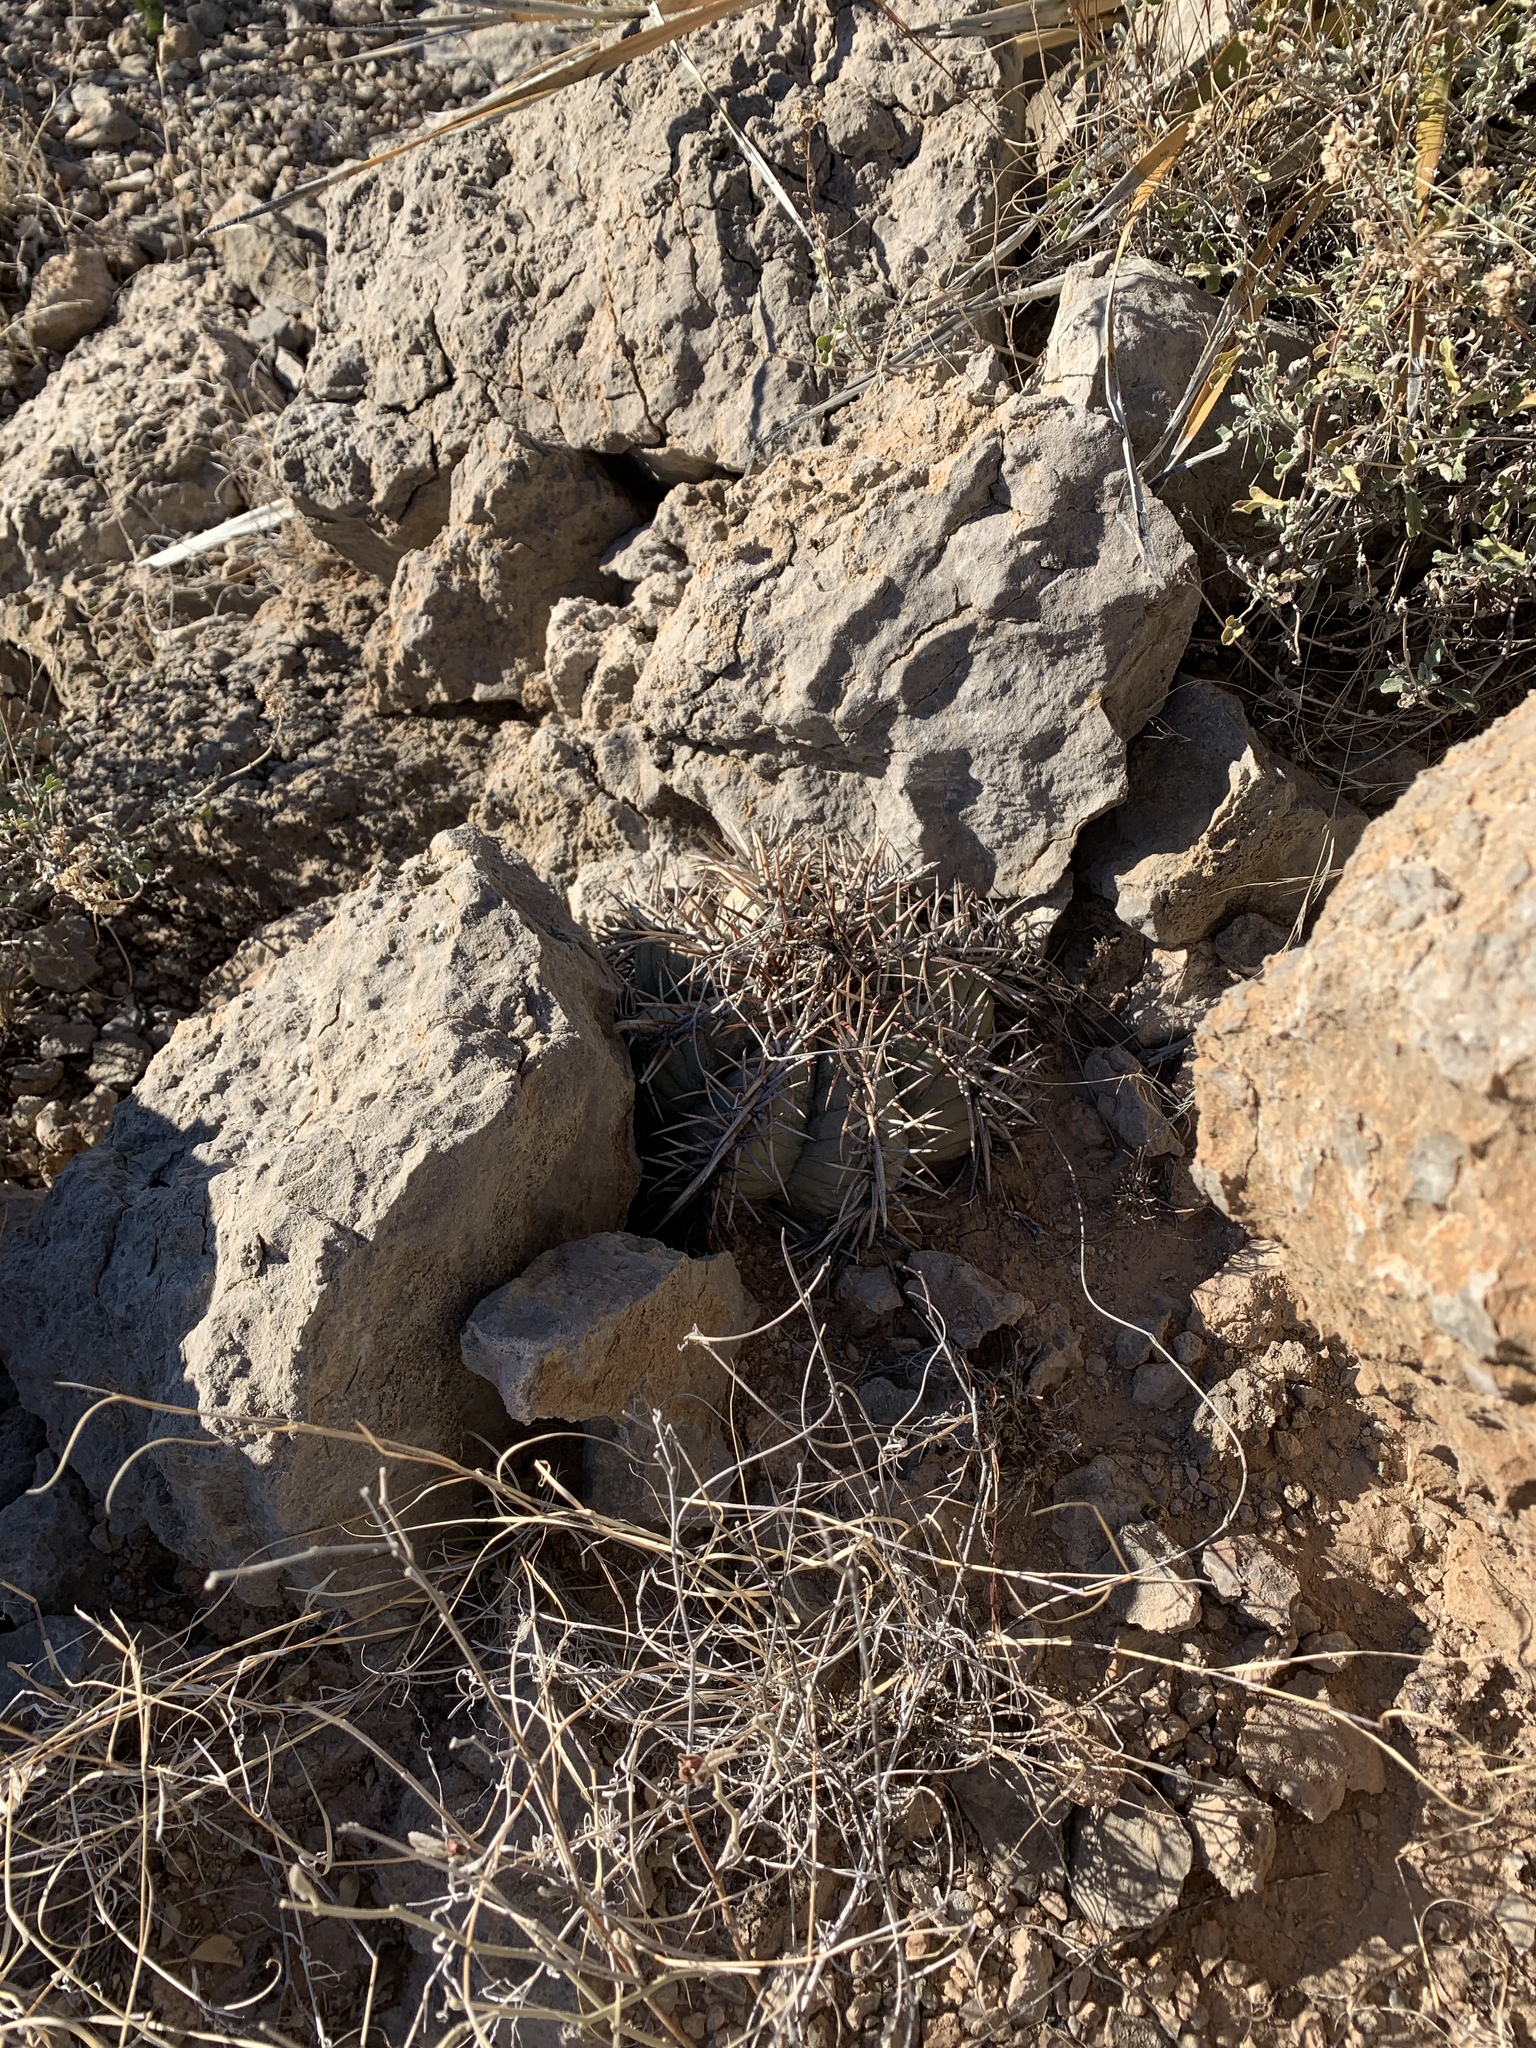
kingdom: Plantae
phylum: Tracheophyta
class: Magnoliopsida
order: Caryophyllales
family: Cactaceae
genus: Echinocactus
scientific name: Echinocactus horizonthalonius
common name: Devilshead
